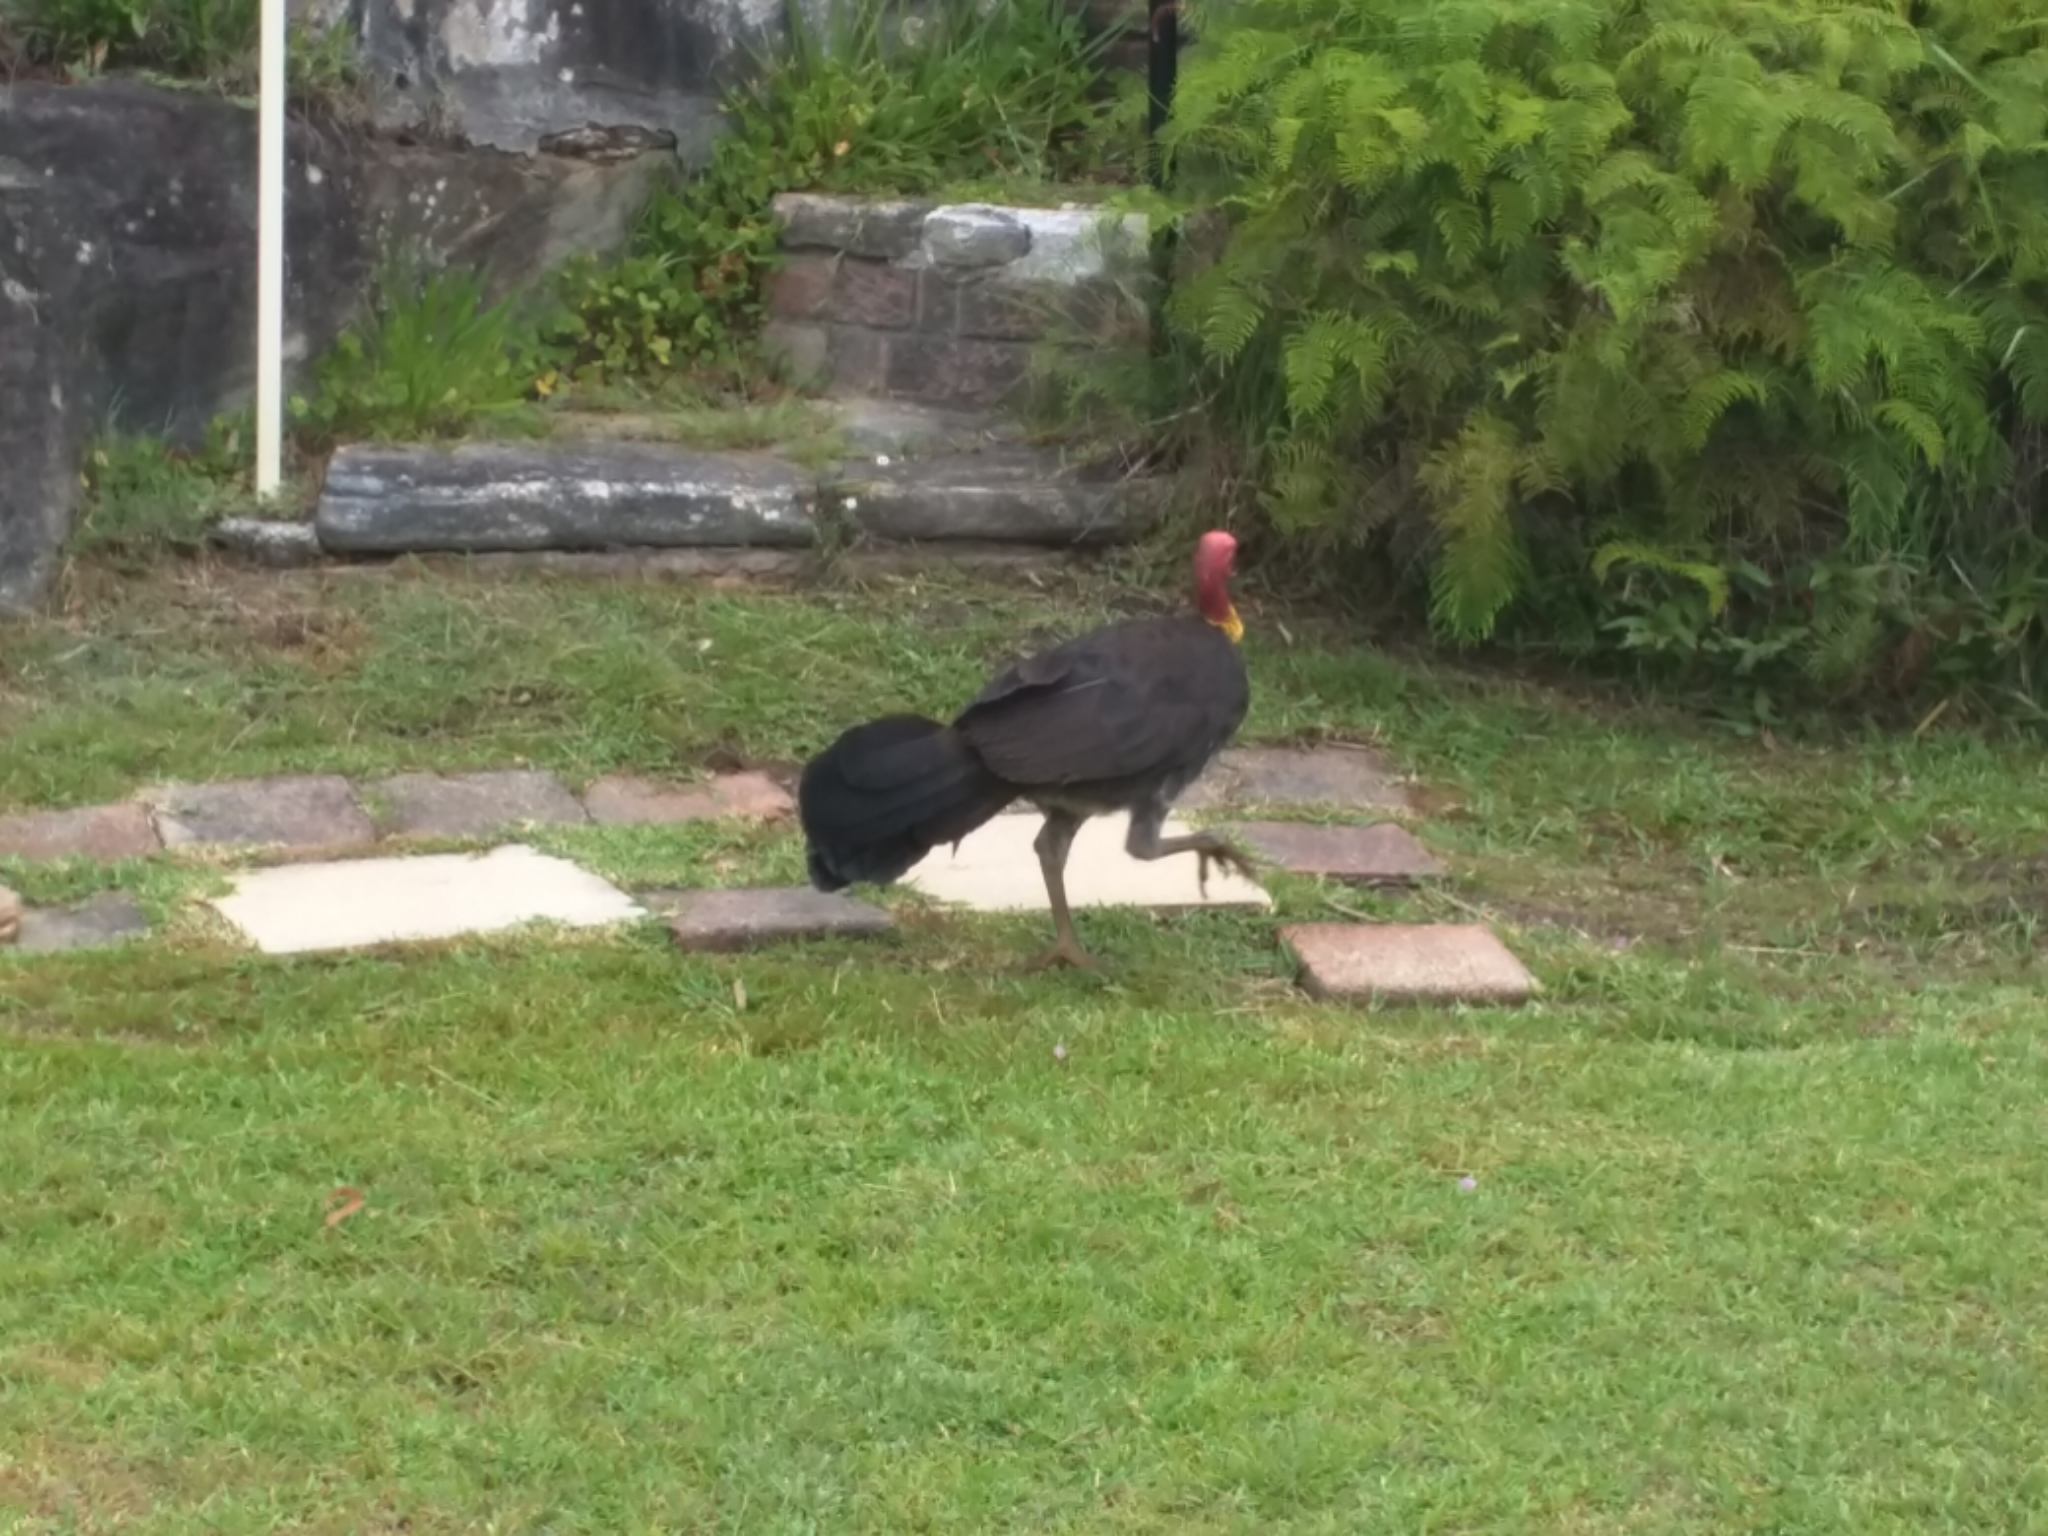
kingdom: Animalia
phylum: Chordata
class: Aves
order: Galliformes
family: Megapodiidae
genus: Alectura
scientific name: Alectura lathami
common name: Australian brushturkey
